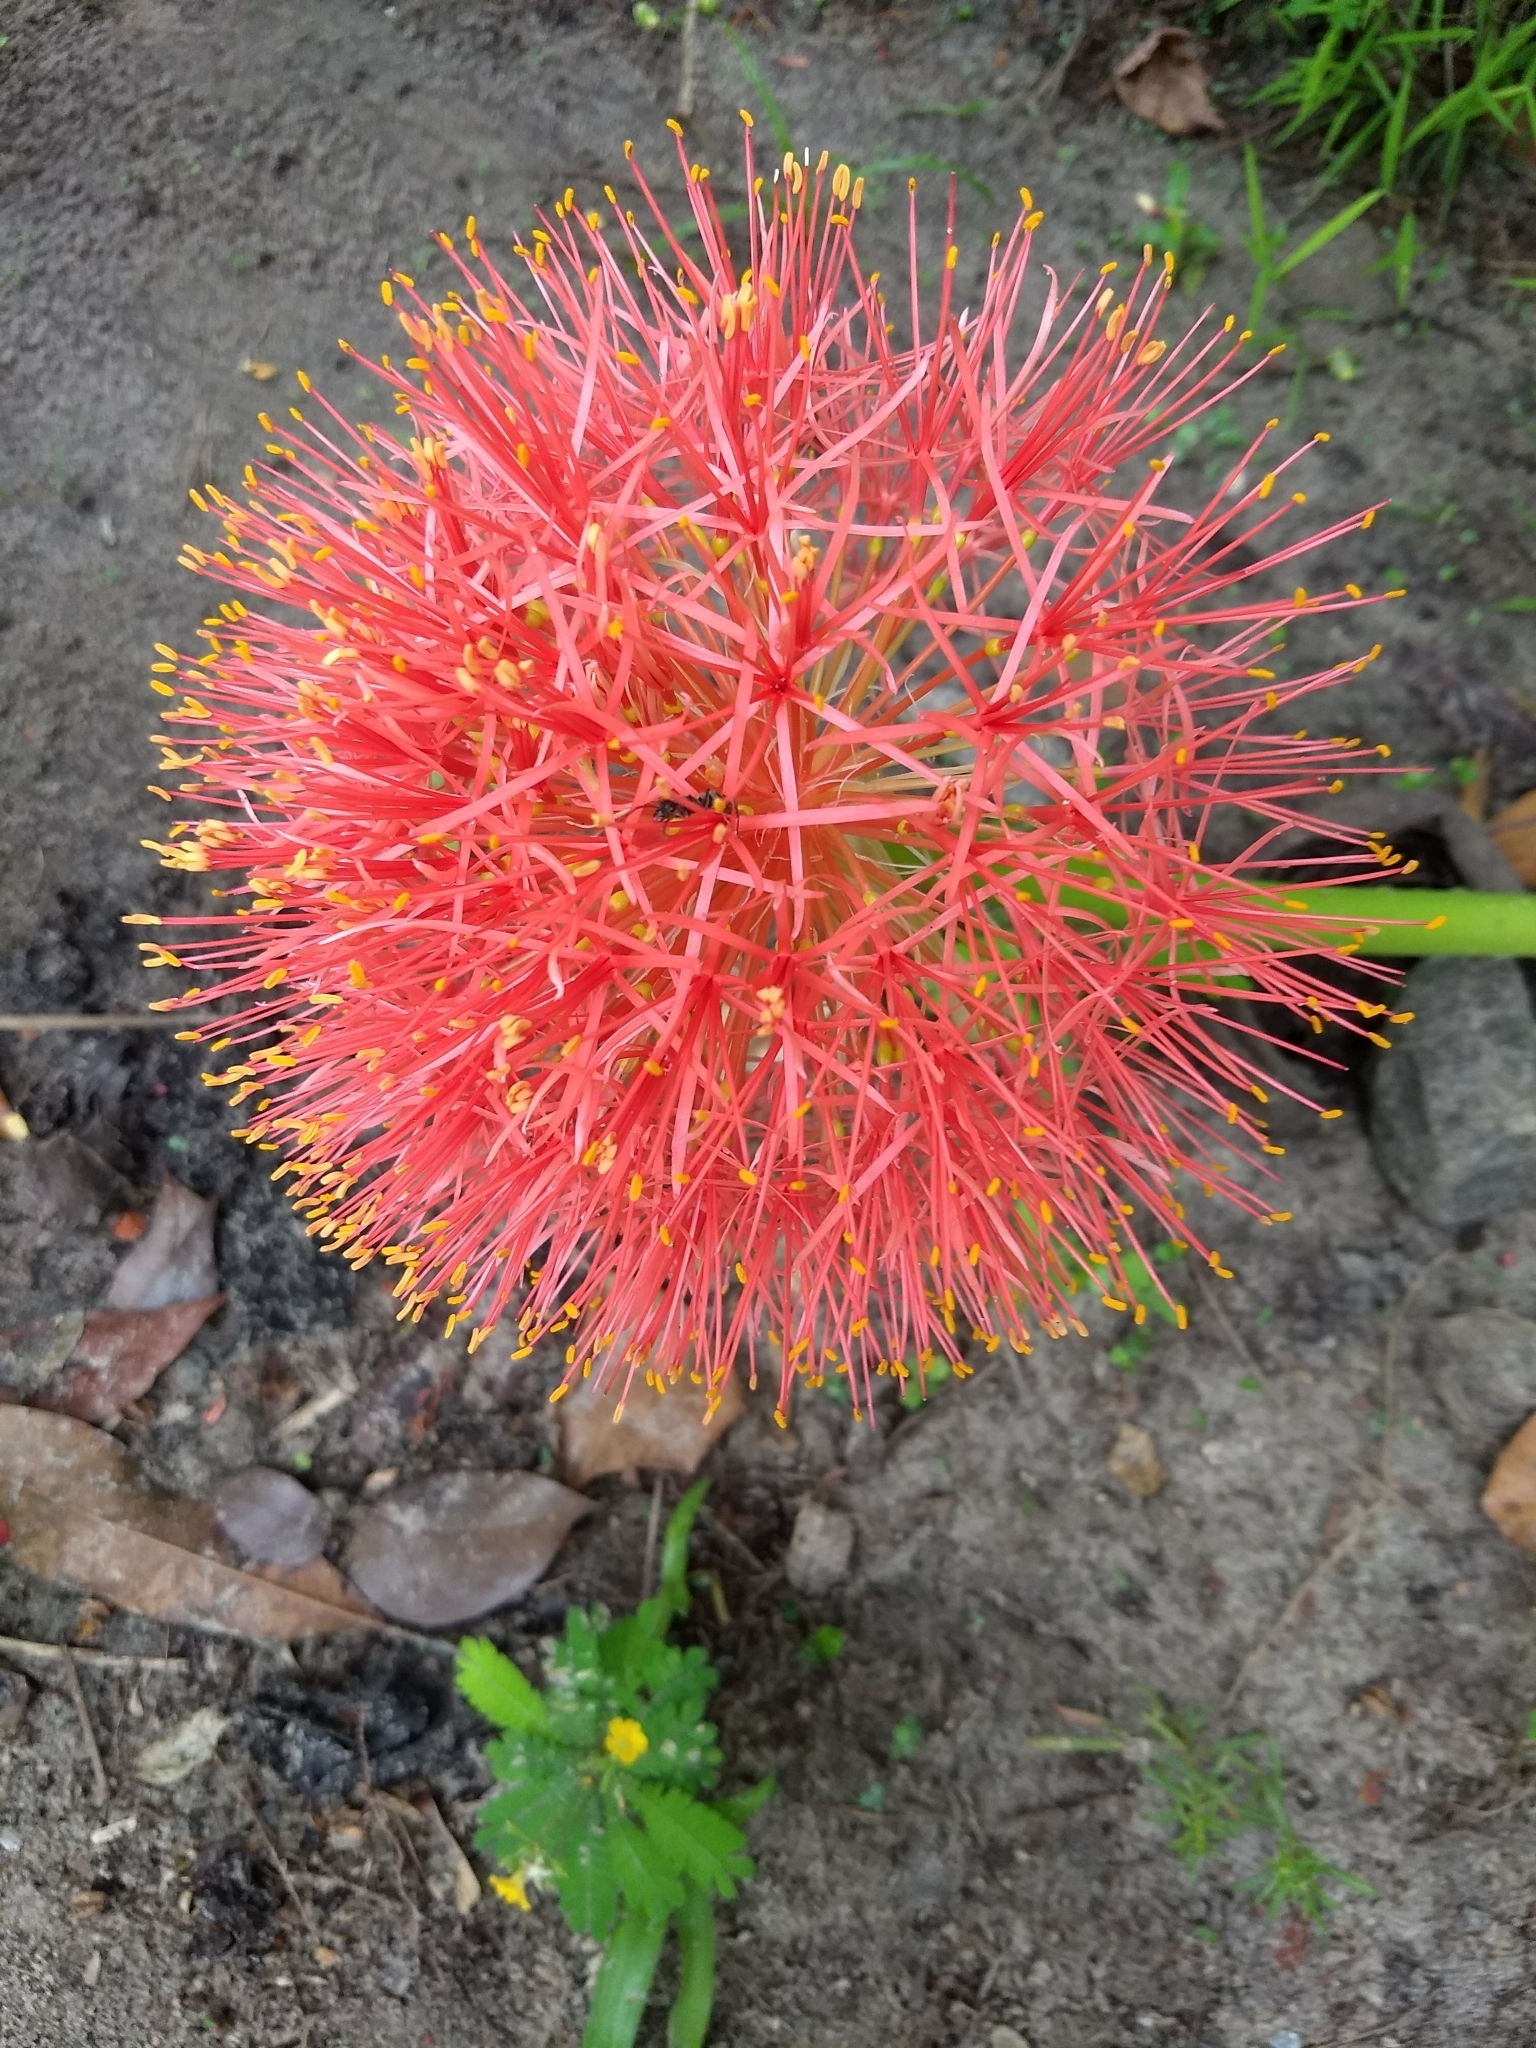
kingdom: Plantae
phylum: Tracheophyta
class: Liliopsida
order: Asparagales
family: Amaryllidaceae
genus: Scadoxus
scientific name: Scadoxus multiflorus
